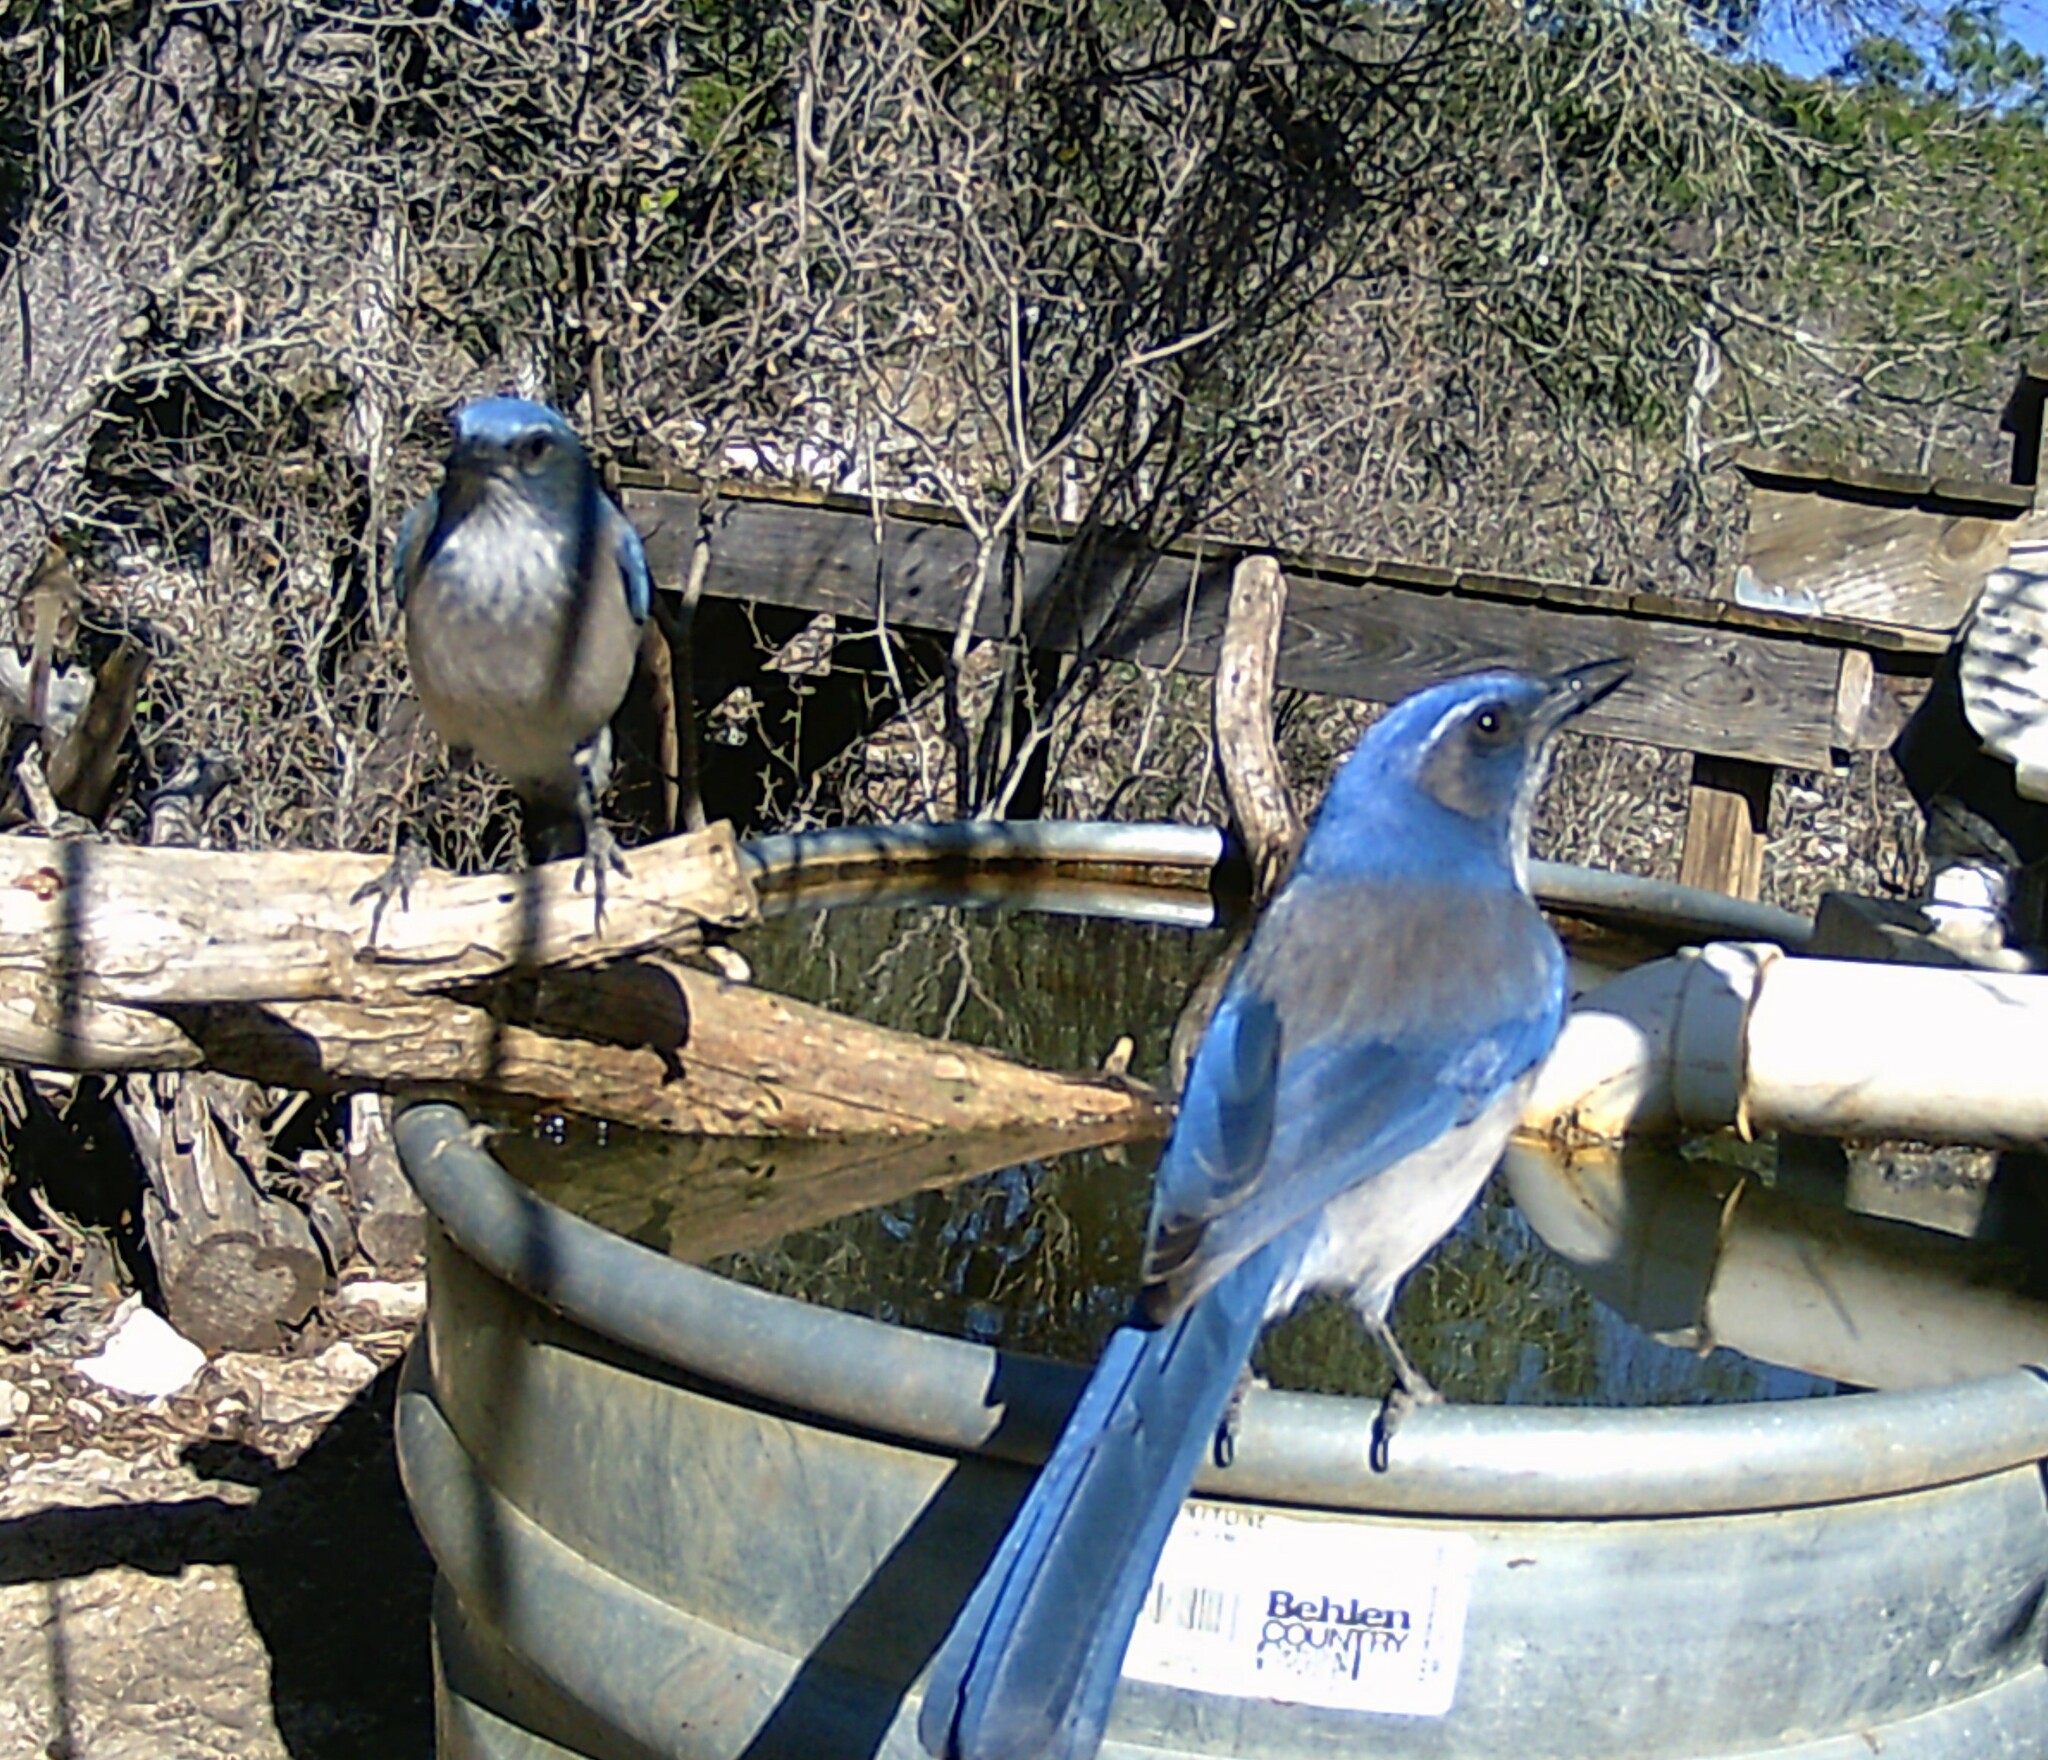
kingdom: Animalia
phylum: Chordata
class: Aves
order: Passeriformes
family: Corvidae
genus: Aphelocoma
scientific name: Aphelocoma woodhouseii
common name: Woodhouse's scrub-jay
